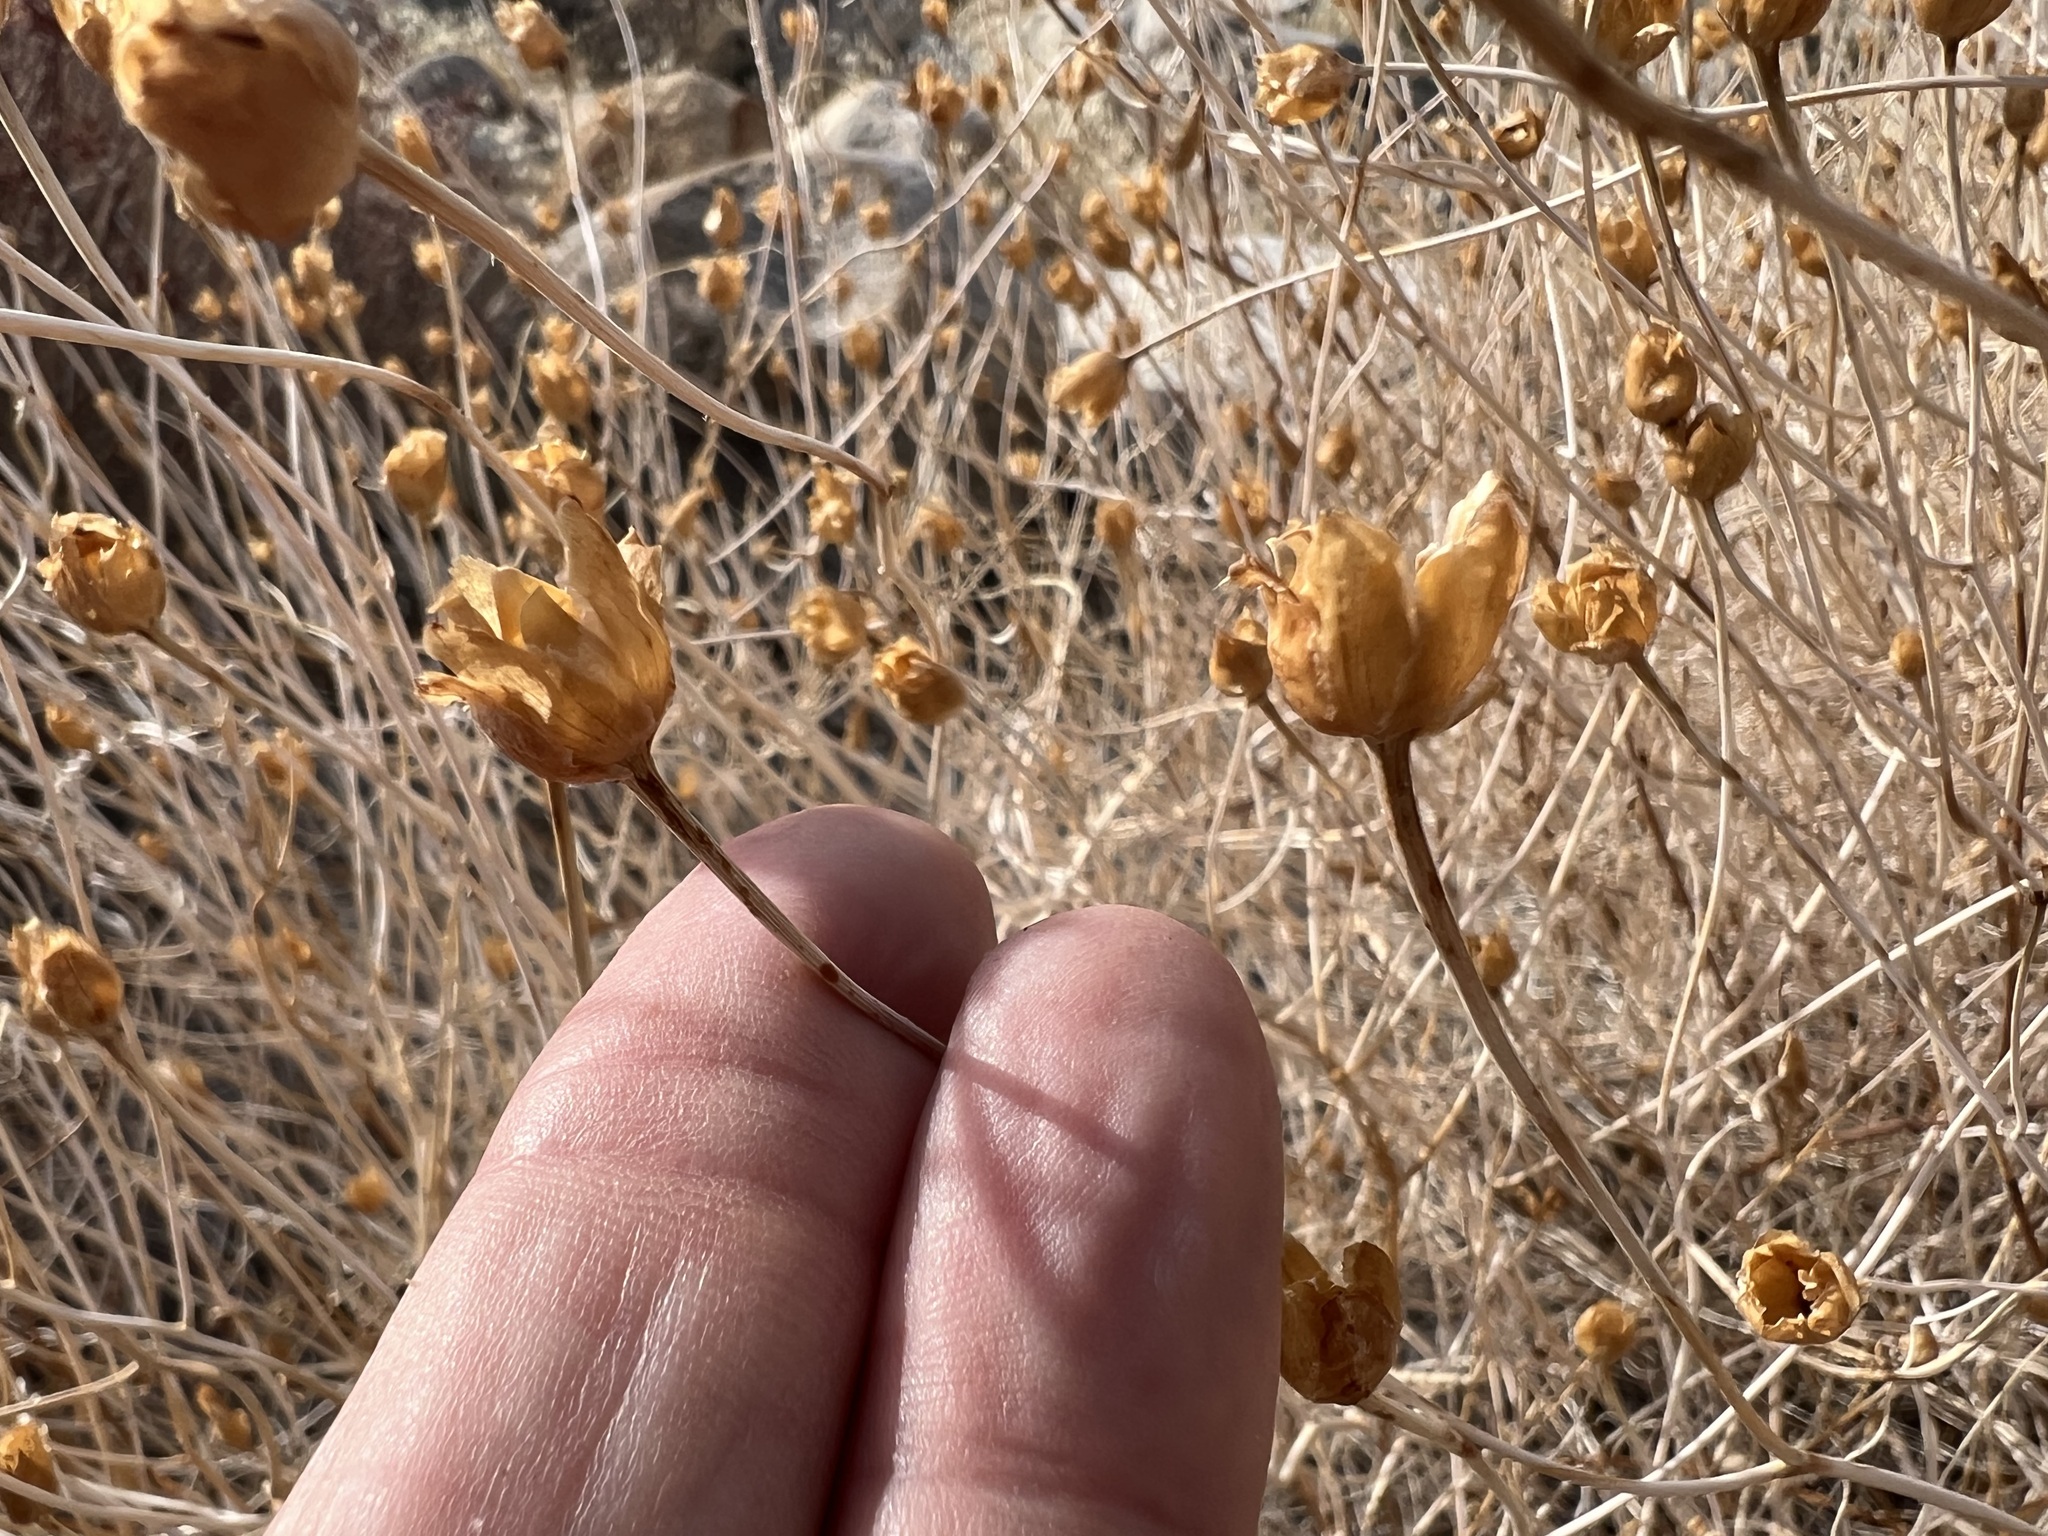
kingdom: Plantae
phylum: Tracheophyta
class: Magnoliopsida
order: Solanales
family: Convolvulaceae
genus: Calystegia
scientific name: Calystegia longipes
